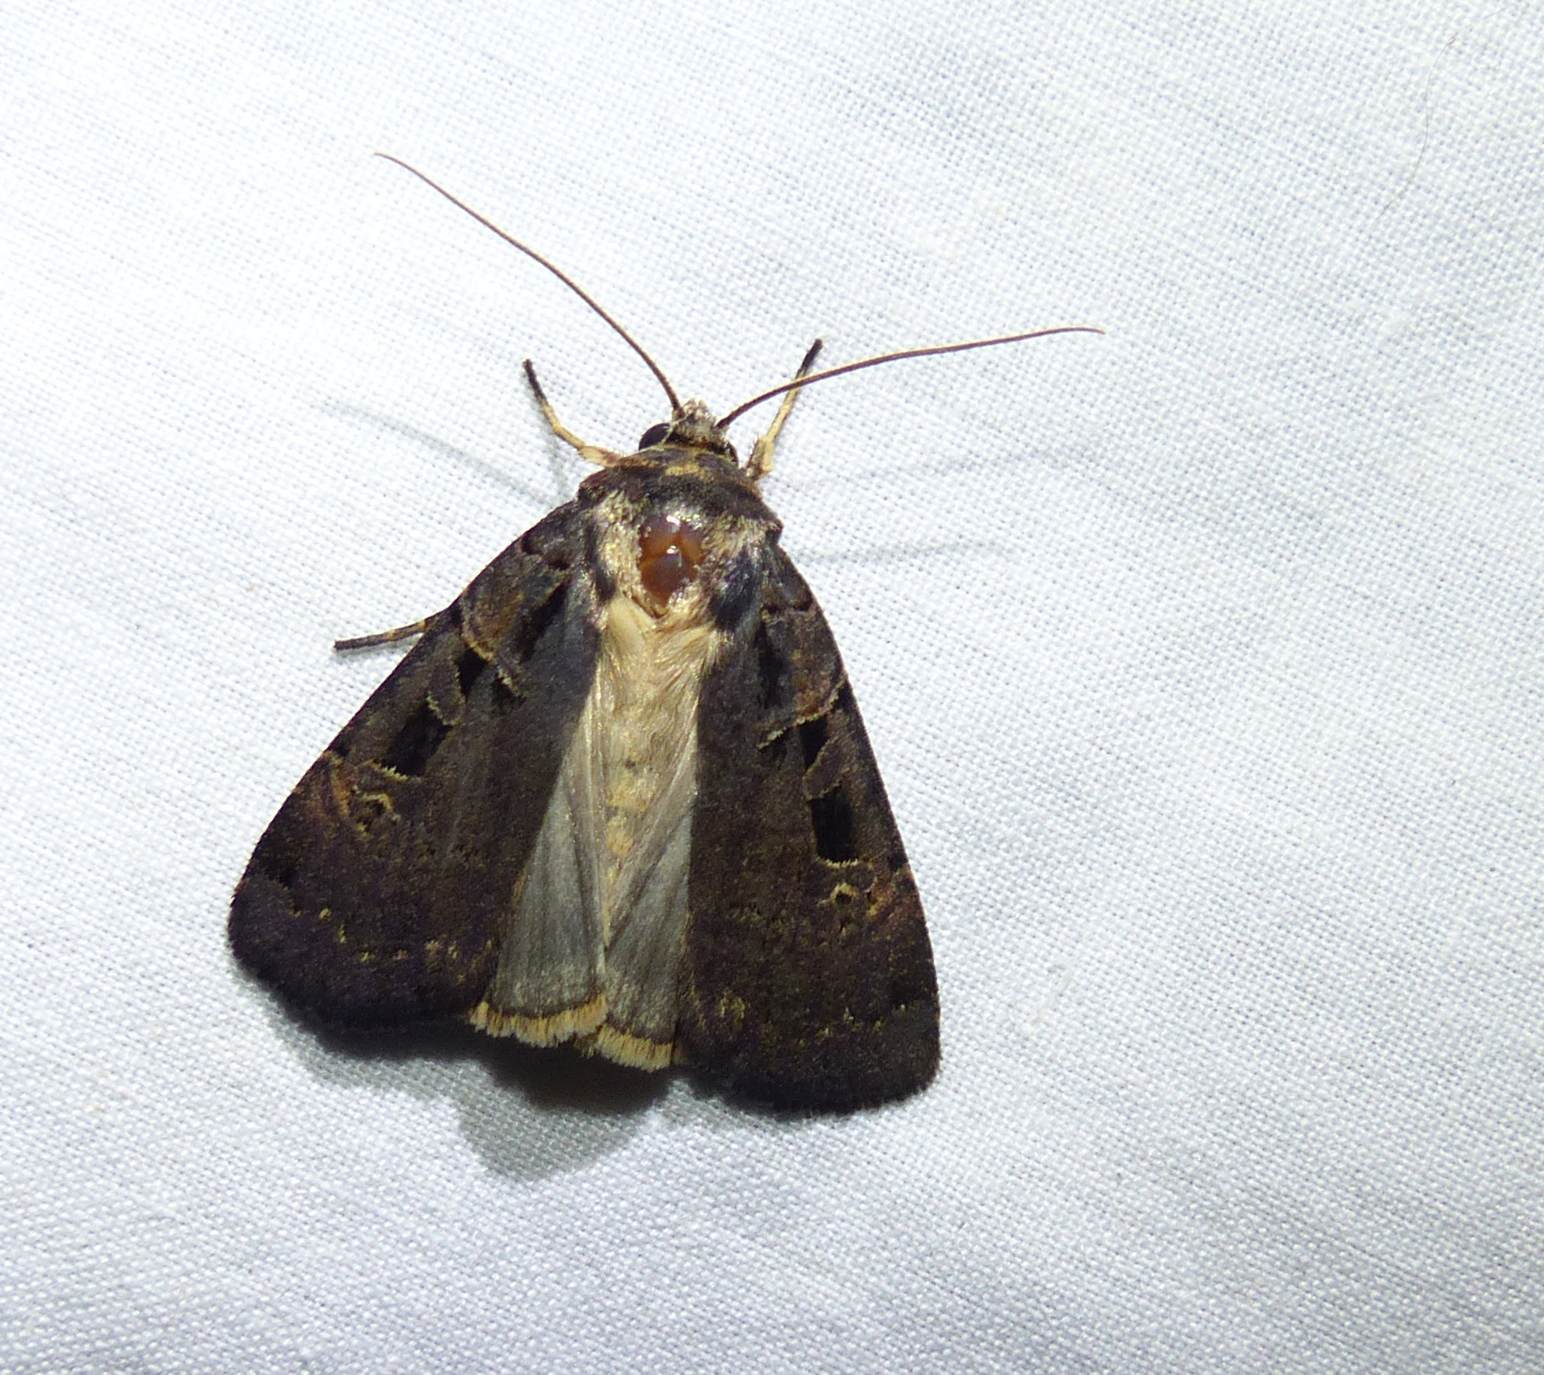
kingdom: Animalia
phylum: Arthropoda
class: Insecta
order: Lepidoptera
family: Noctuidae
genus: Pseudohermonassa
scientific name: Pseudohermonassa tenuicula
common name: Morrison's sooty dart
